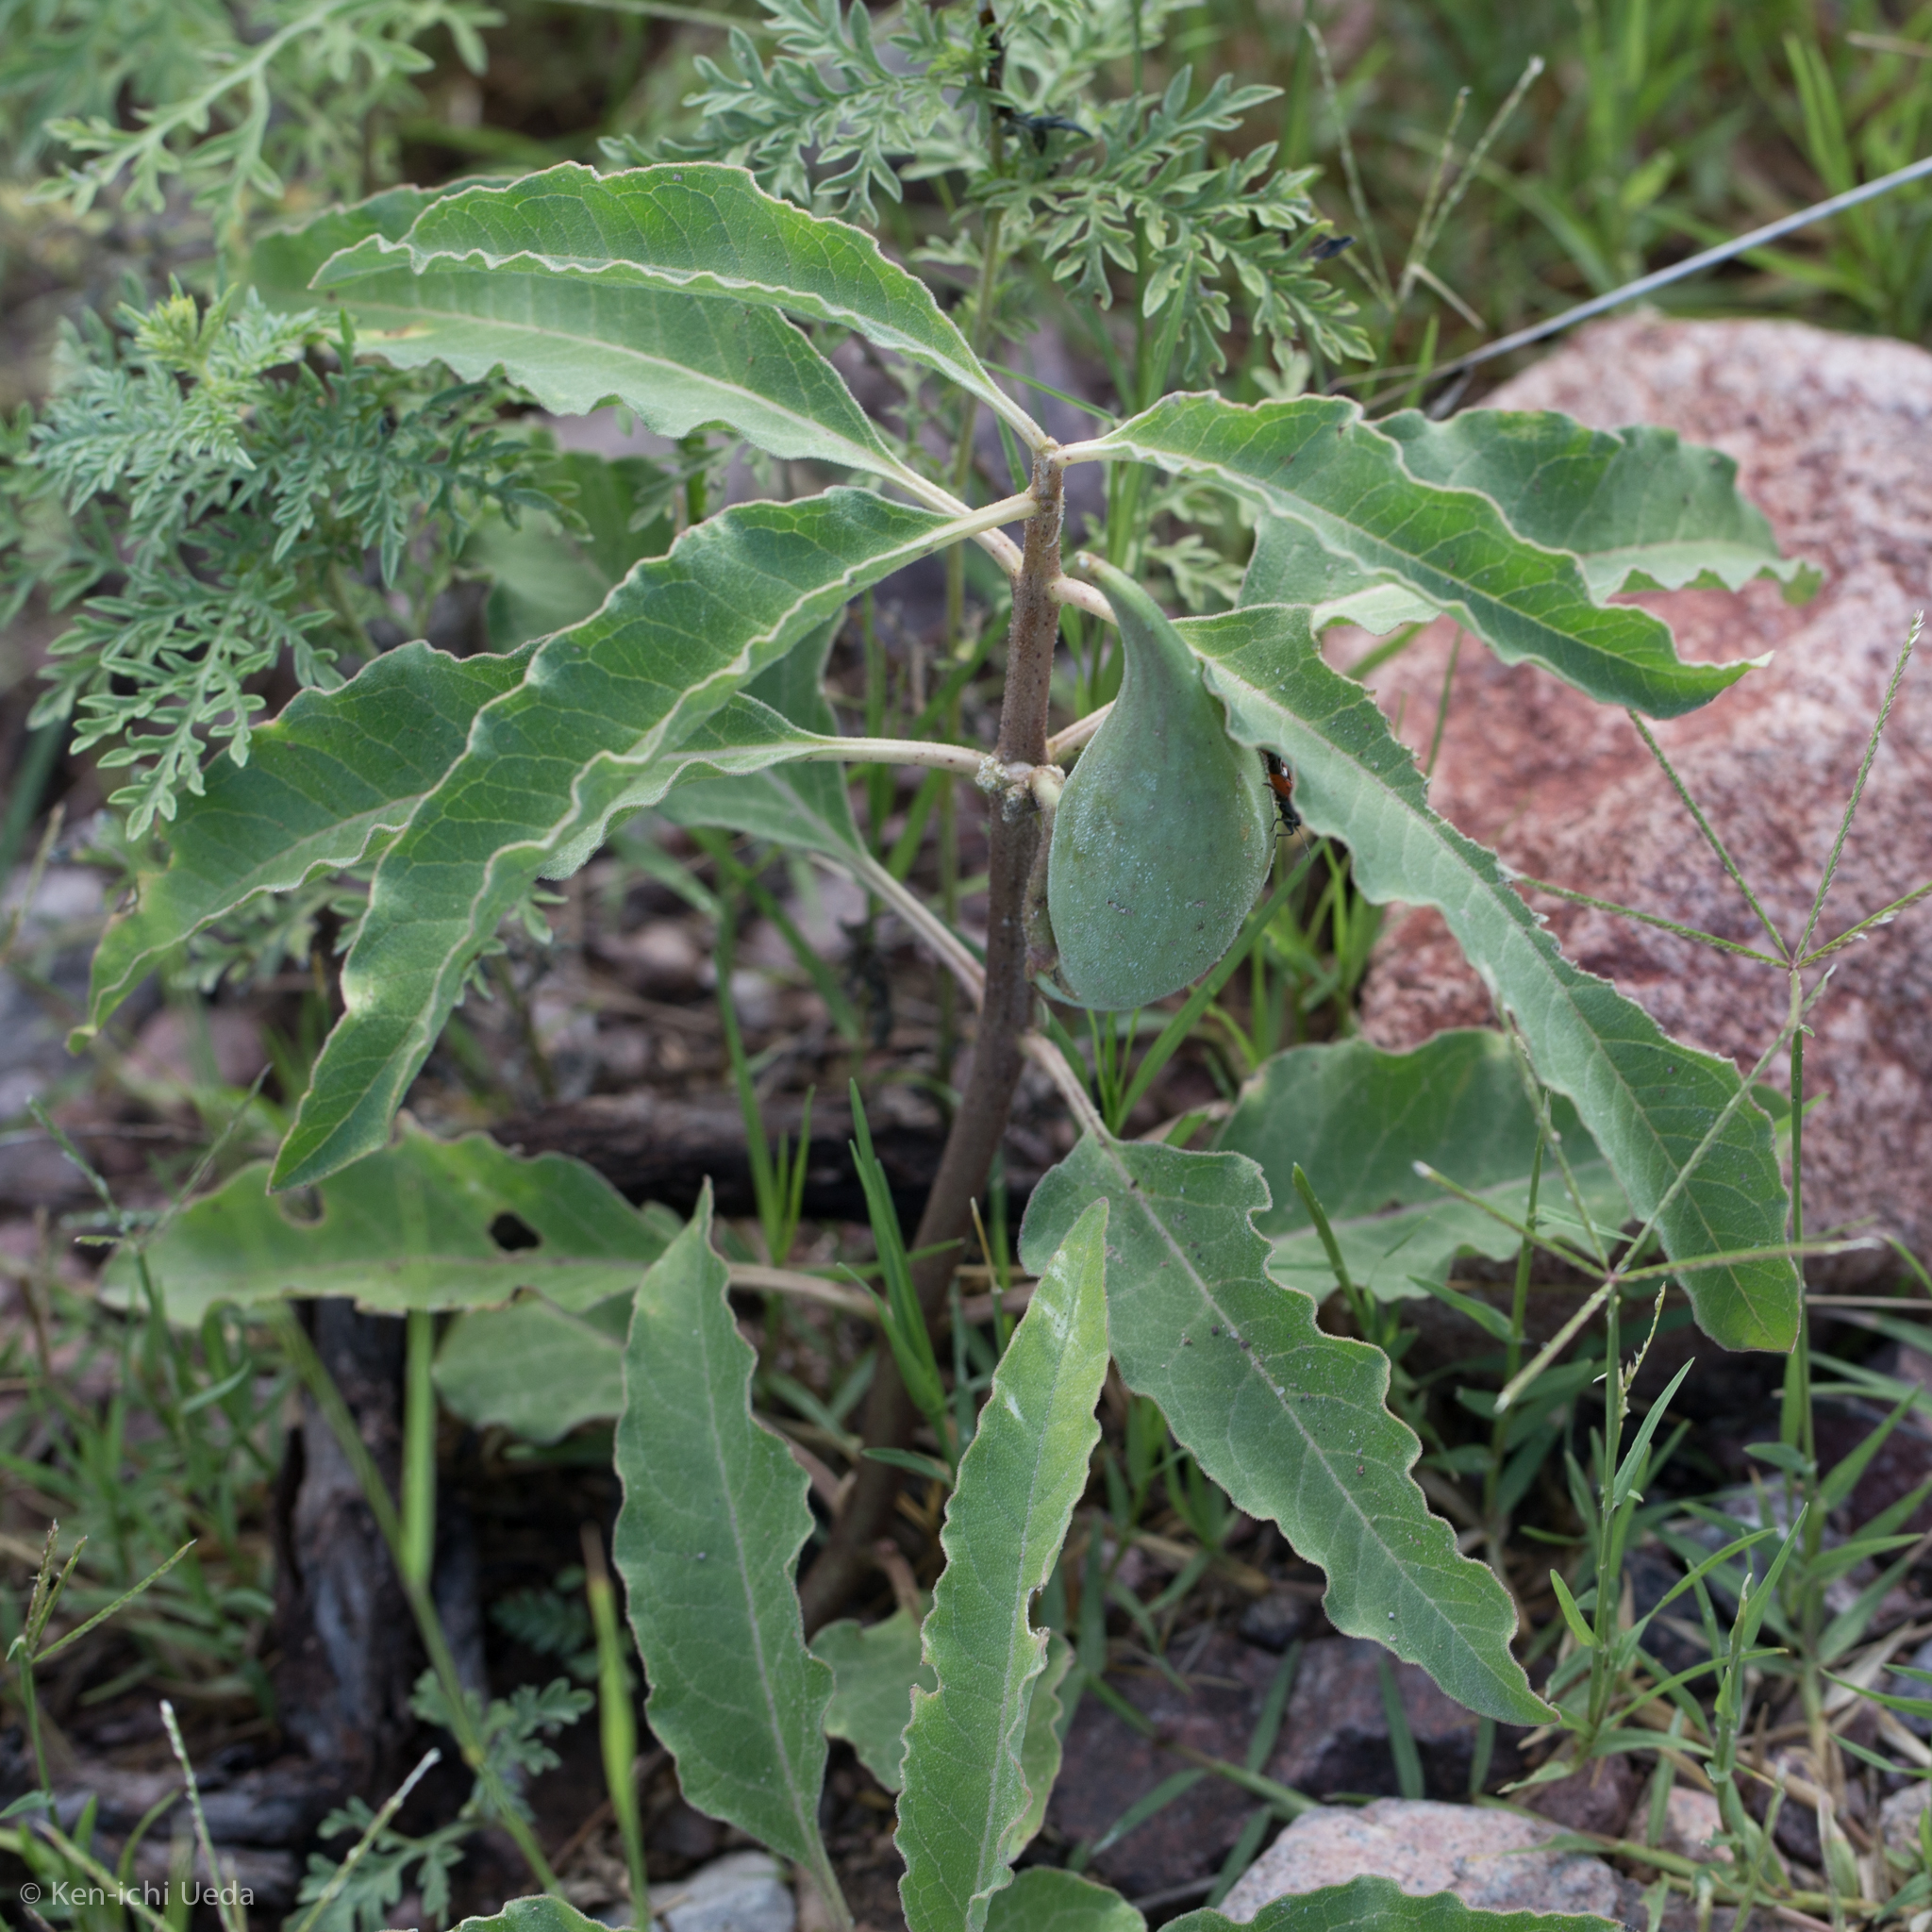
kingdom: Plantae
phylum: Tracheophyta
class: Magnoliopsida
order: Gentianales
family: Apocynaceae
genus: Asclepias
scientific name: Asclepias nyctaginifolia
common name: Mojave milkweed
